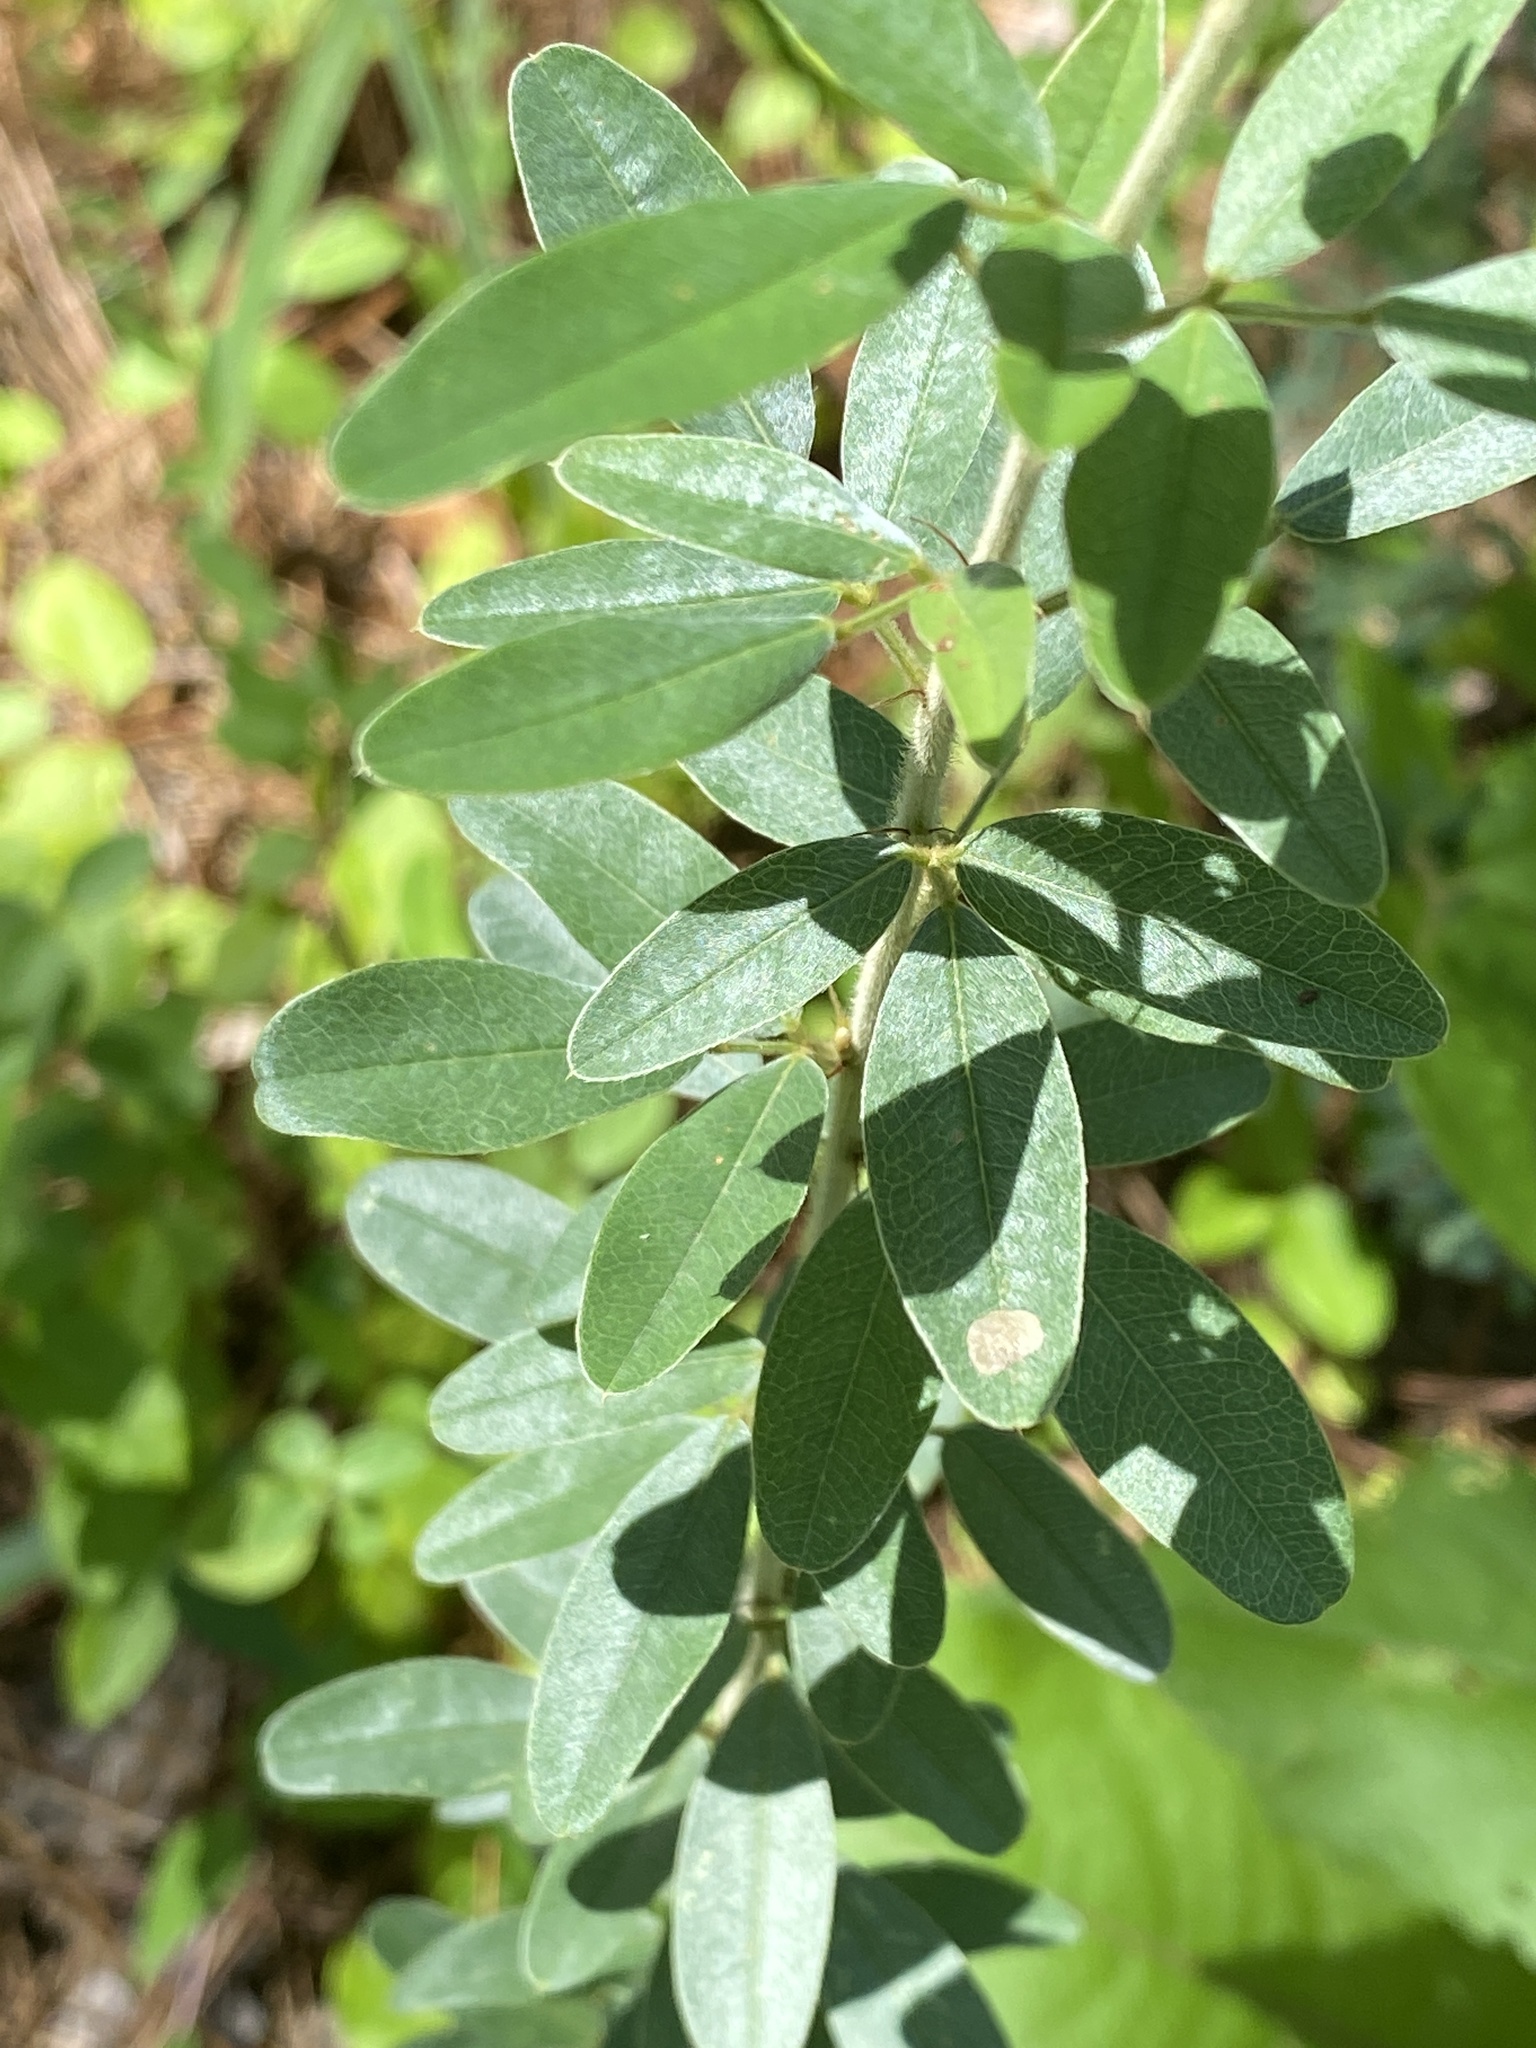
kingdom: Plantae
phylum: Tracheophyta
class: Magnoliopsida
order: Fabales
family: Fabaceae
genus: Lespedeza
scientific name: Lespedeza capitata
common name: Dusty clover
